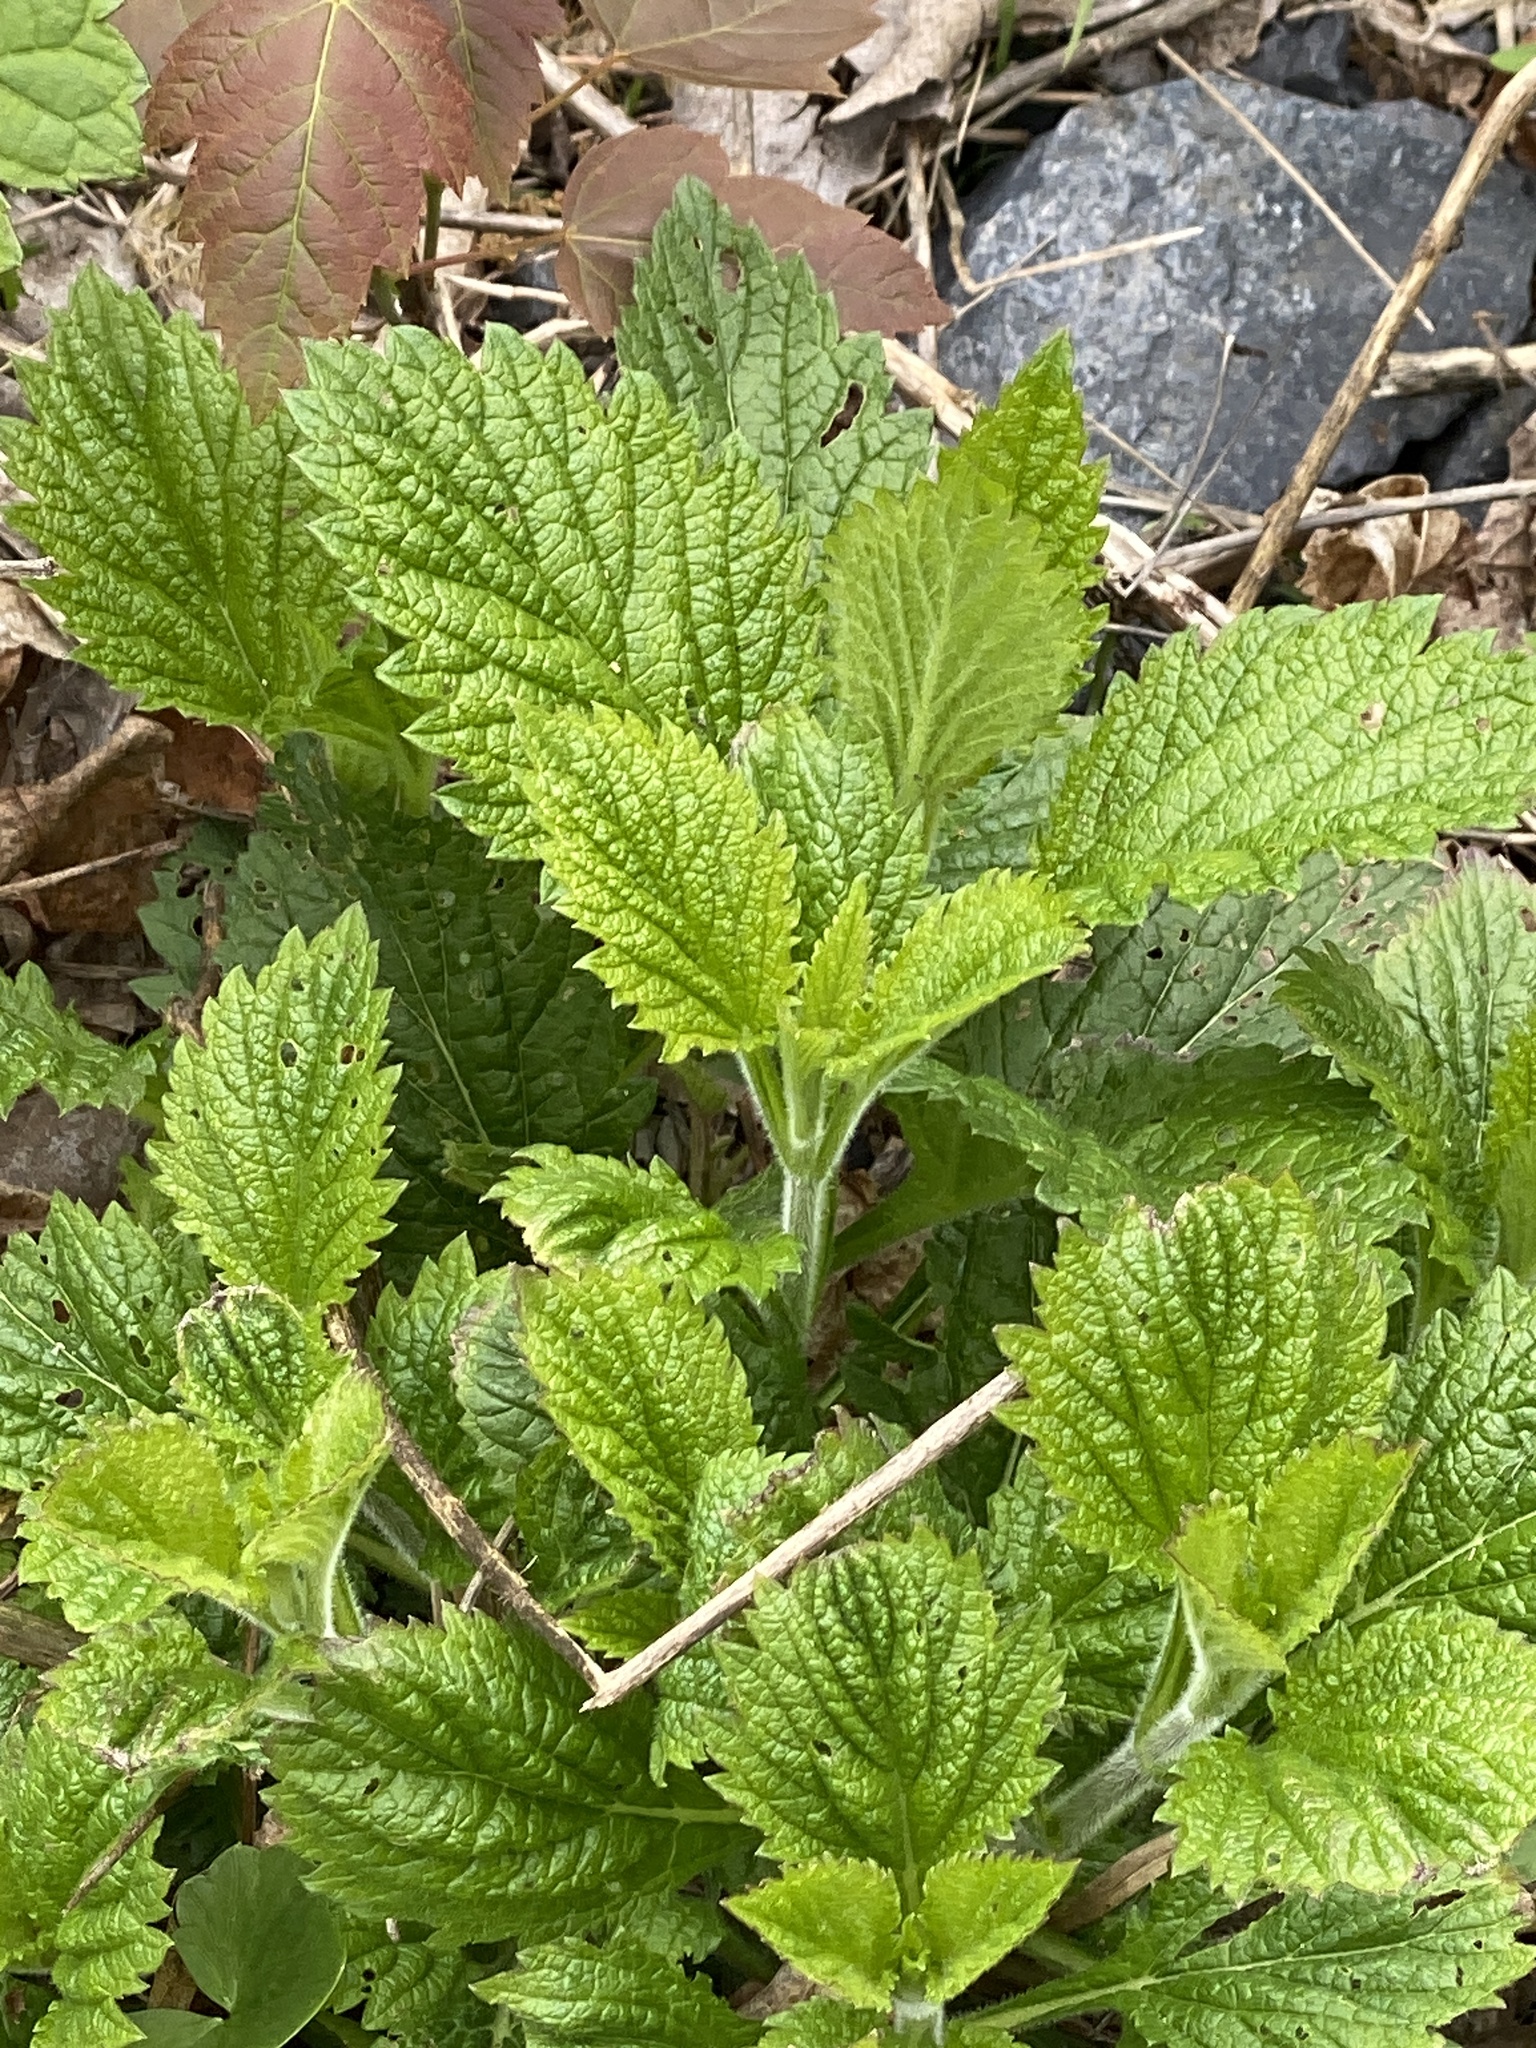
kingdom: Plantae
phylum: Tracheophyta
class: Magnoliopsida
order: Lamiales
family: Verbenaceae
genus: Verbena
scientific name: Verbena urticifolia
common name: Nettle-leaved vervain
